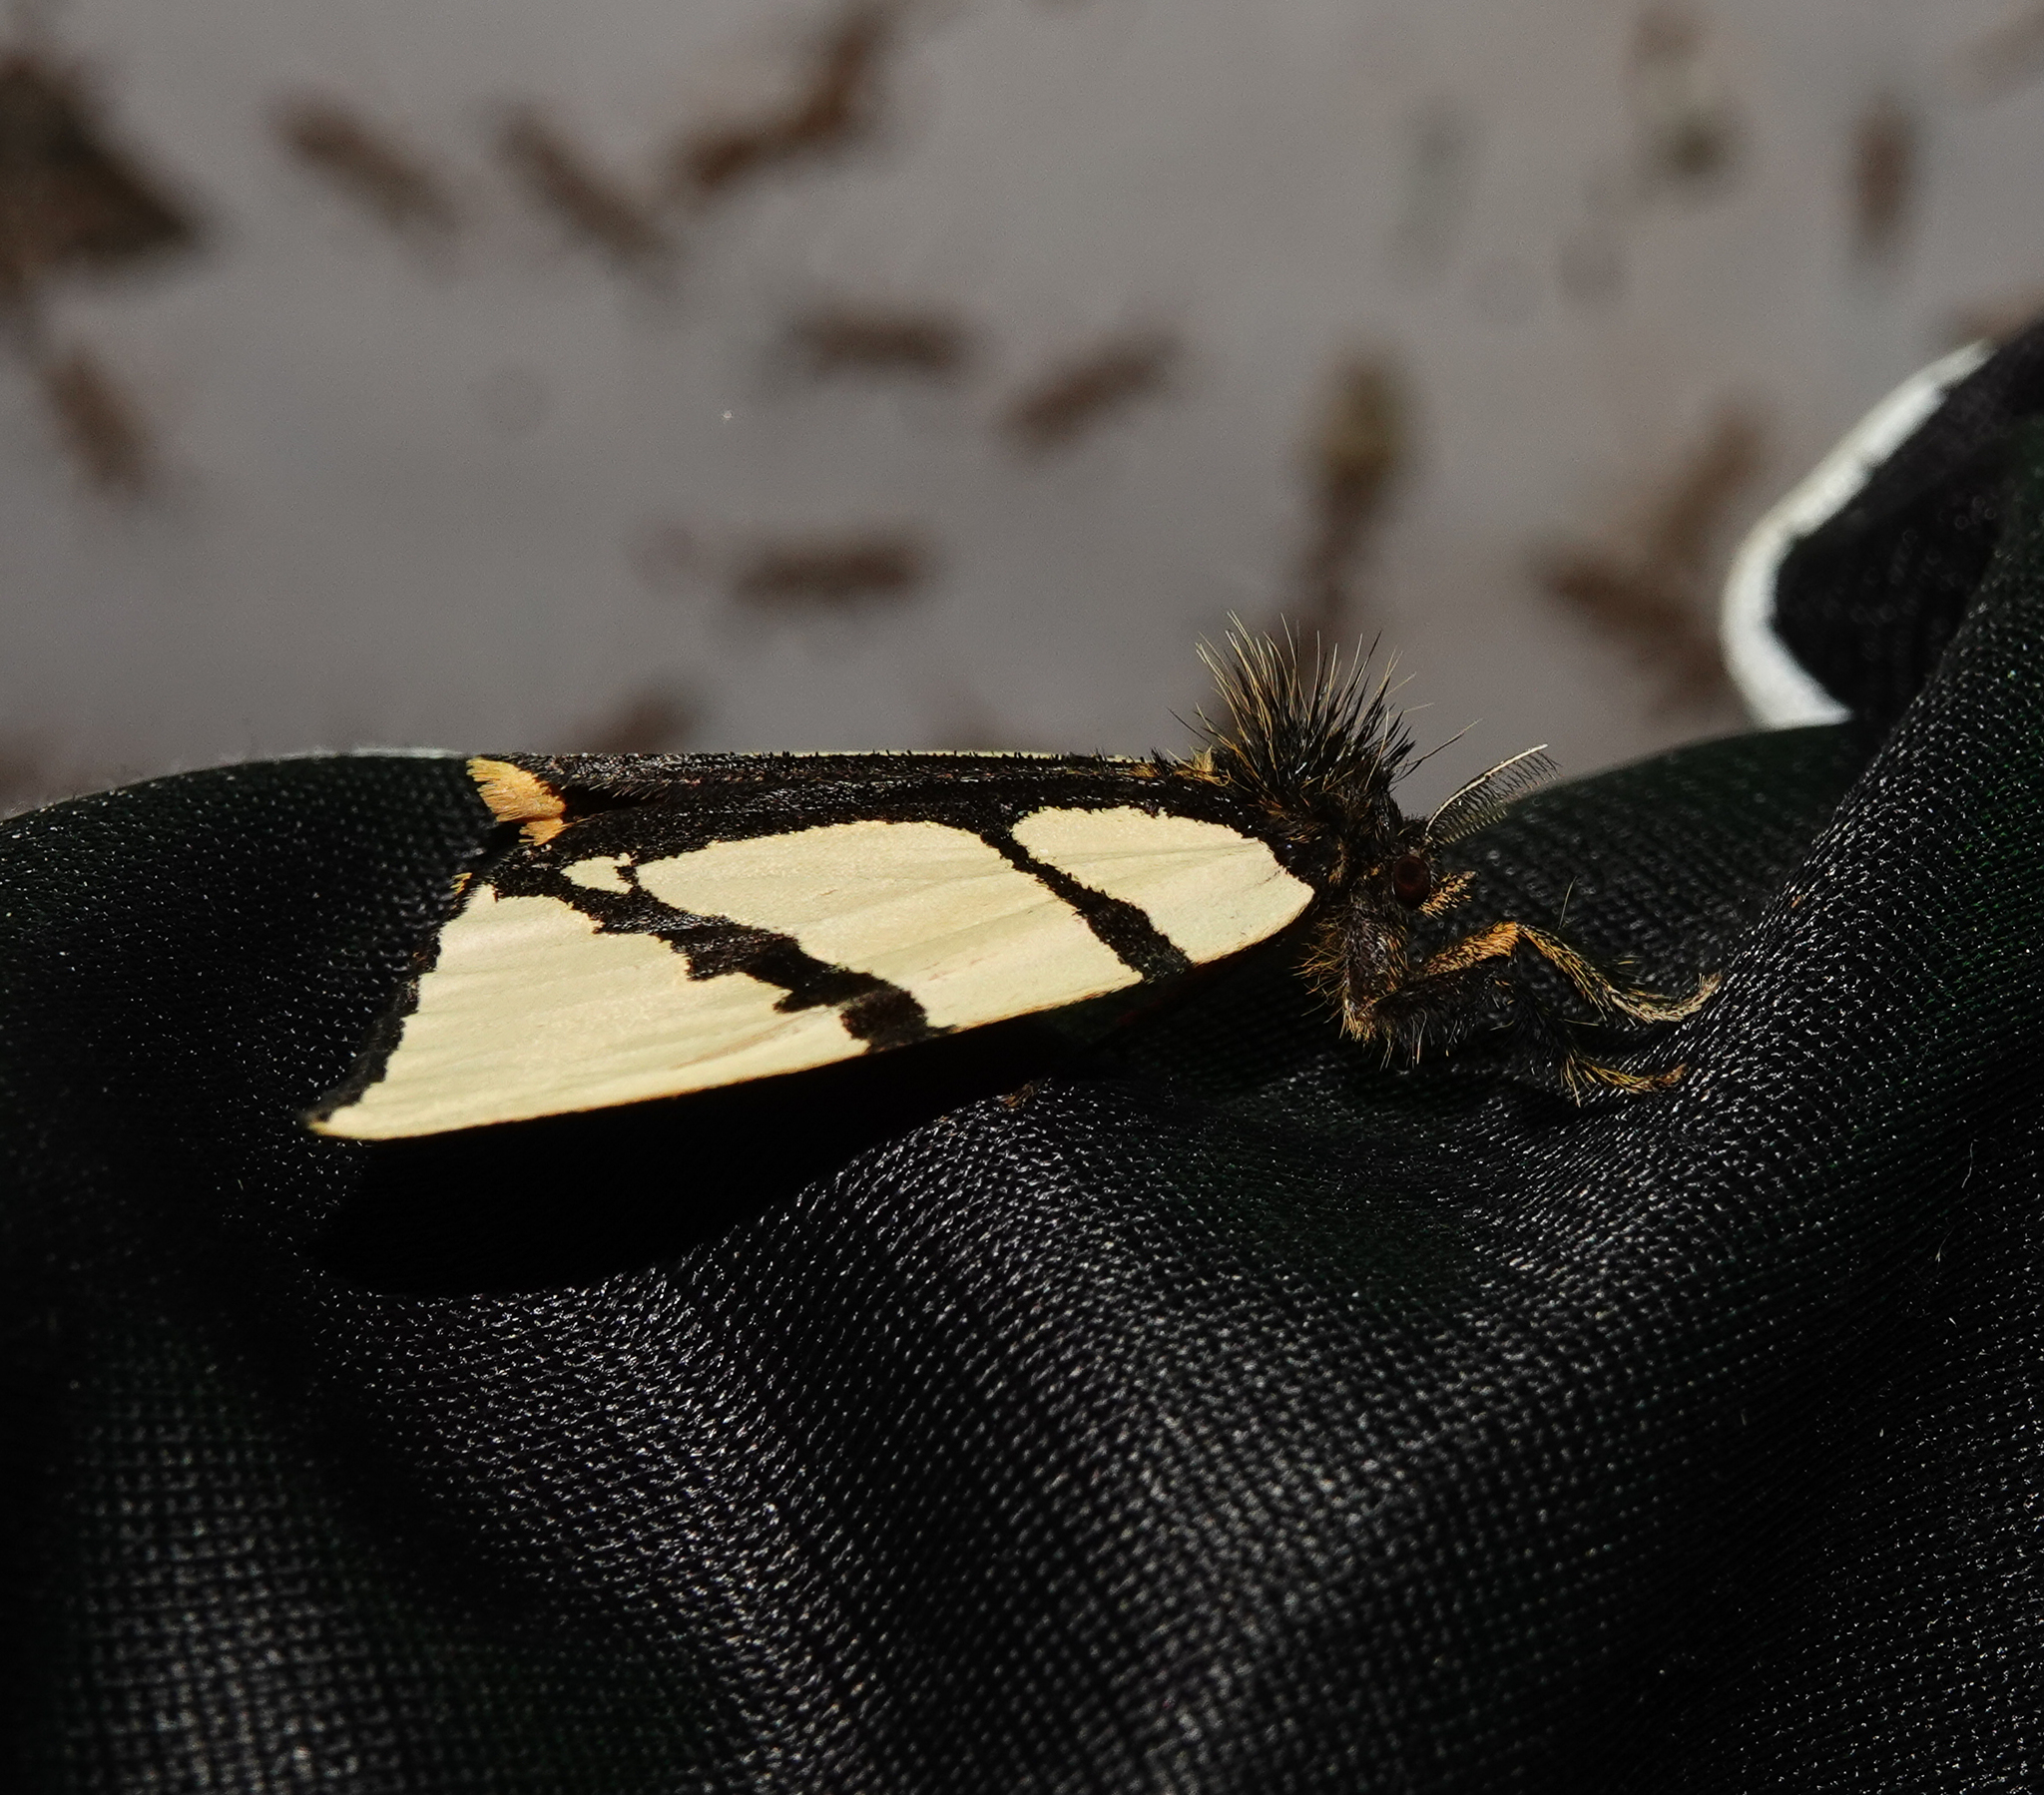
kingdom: Animalia
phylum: Arthropoda
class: Insecta
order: Lepidoptera
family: Erebidae
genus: Numenes
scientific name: Numenes siletti
